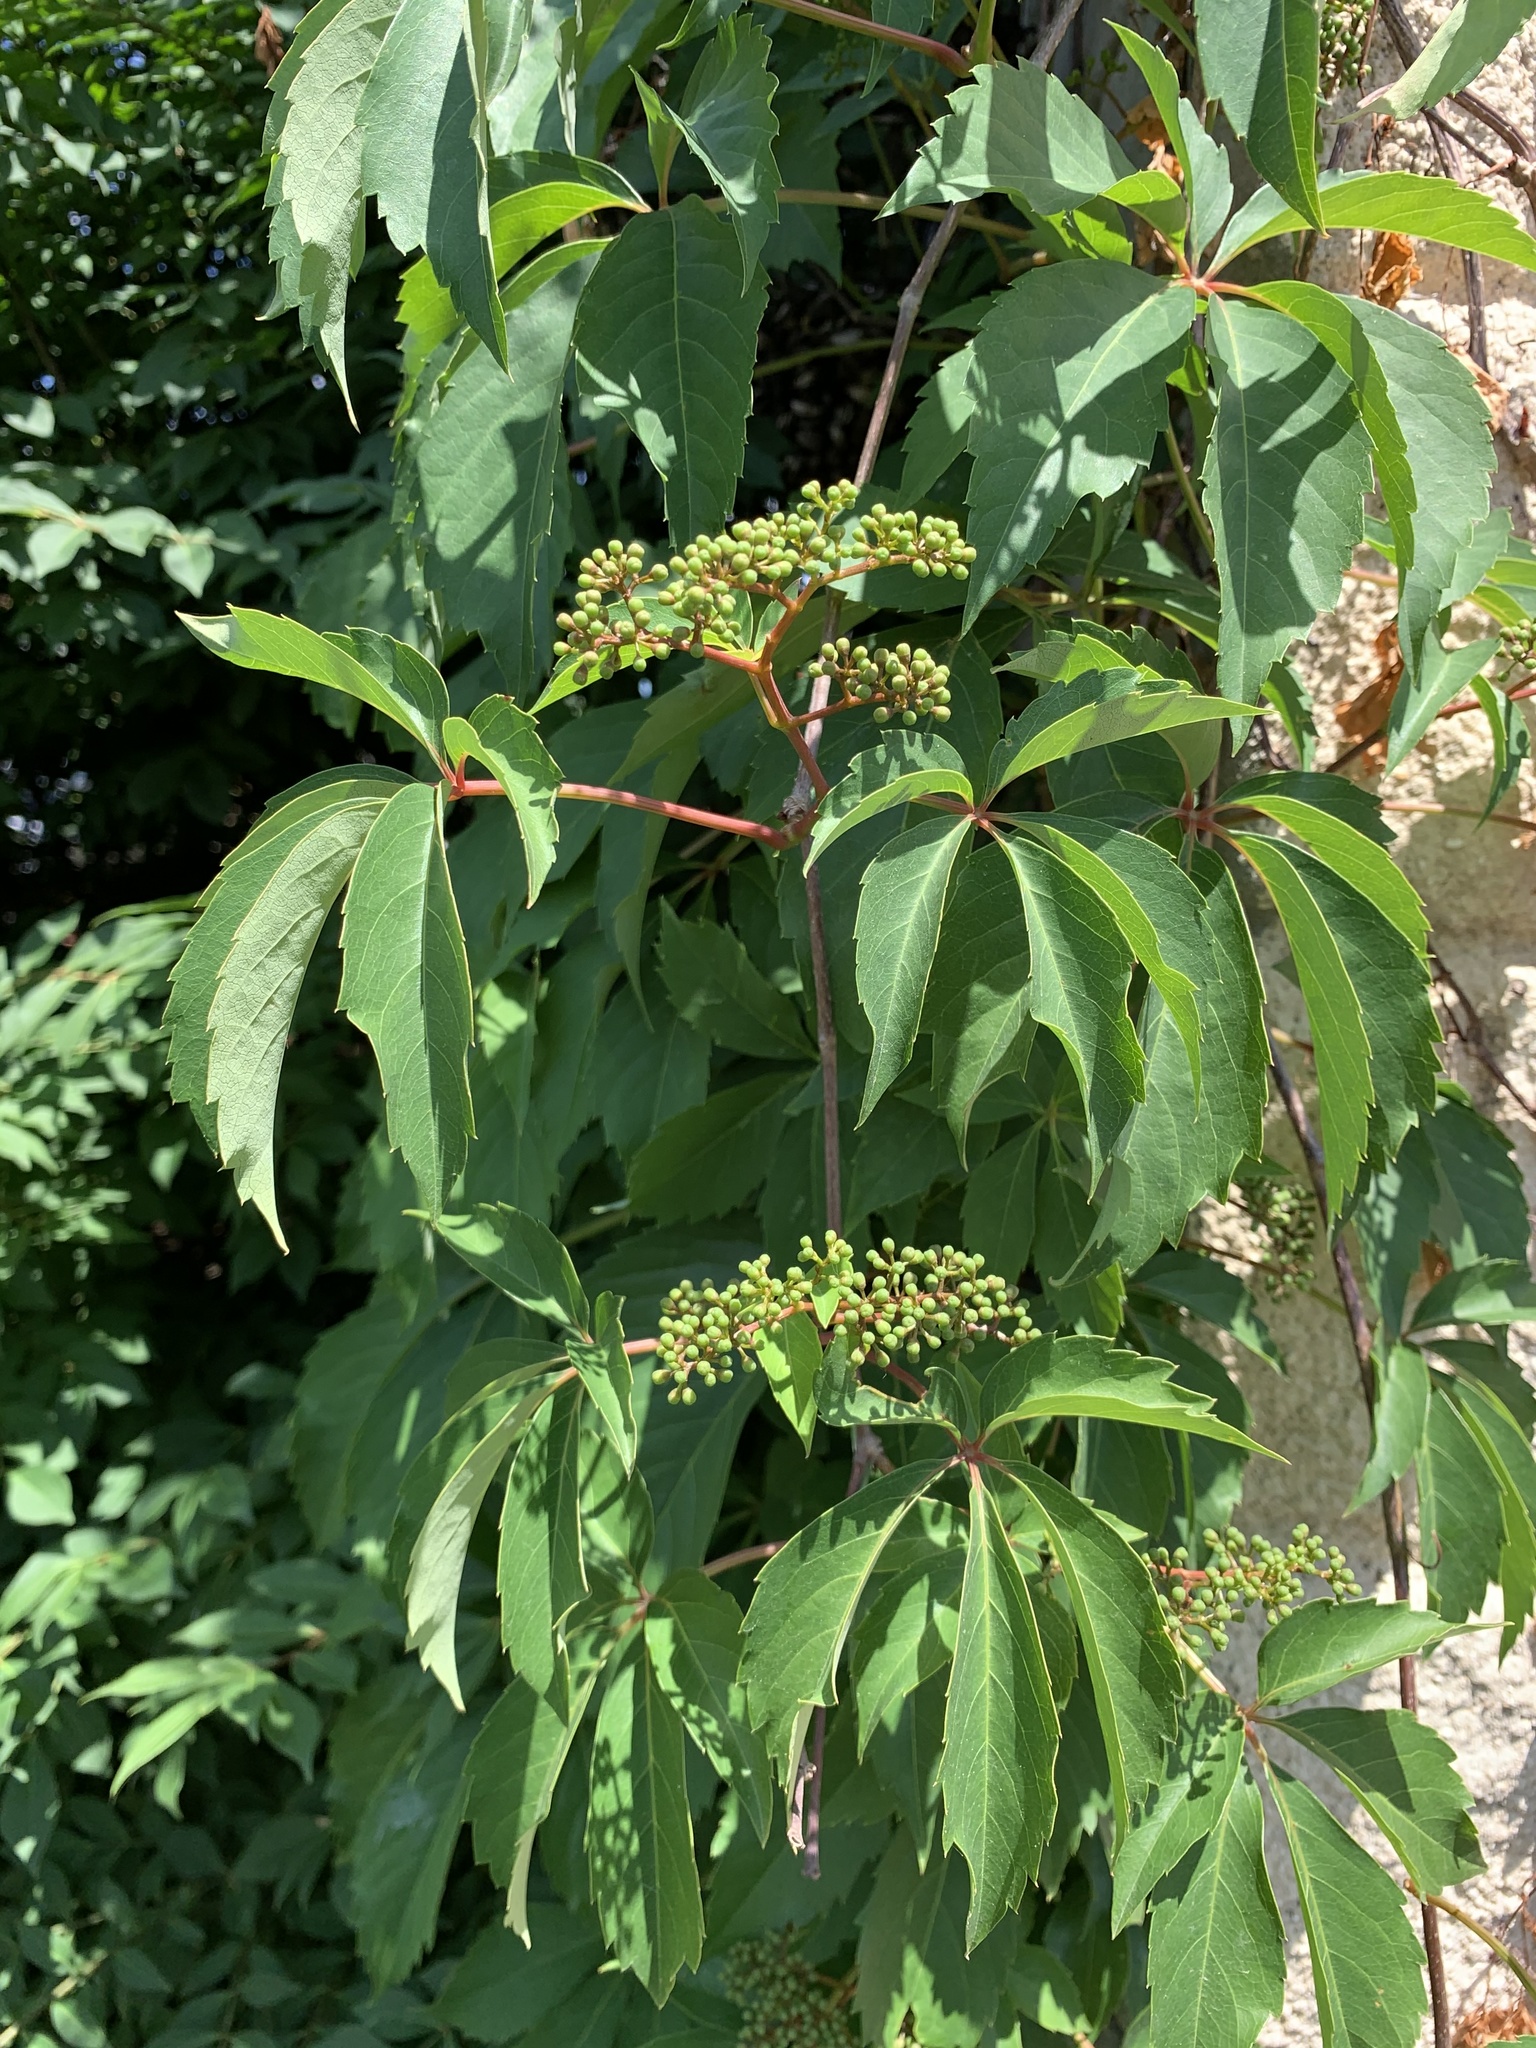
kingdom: Plantae
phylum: Tracheophyta
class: Magnoliopsida
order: Vitales
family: Vitaceae
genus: Parthenocissus
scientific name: Parthenocissus quinquefolia
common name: Virginia-creeper
